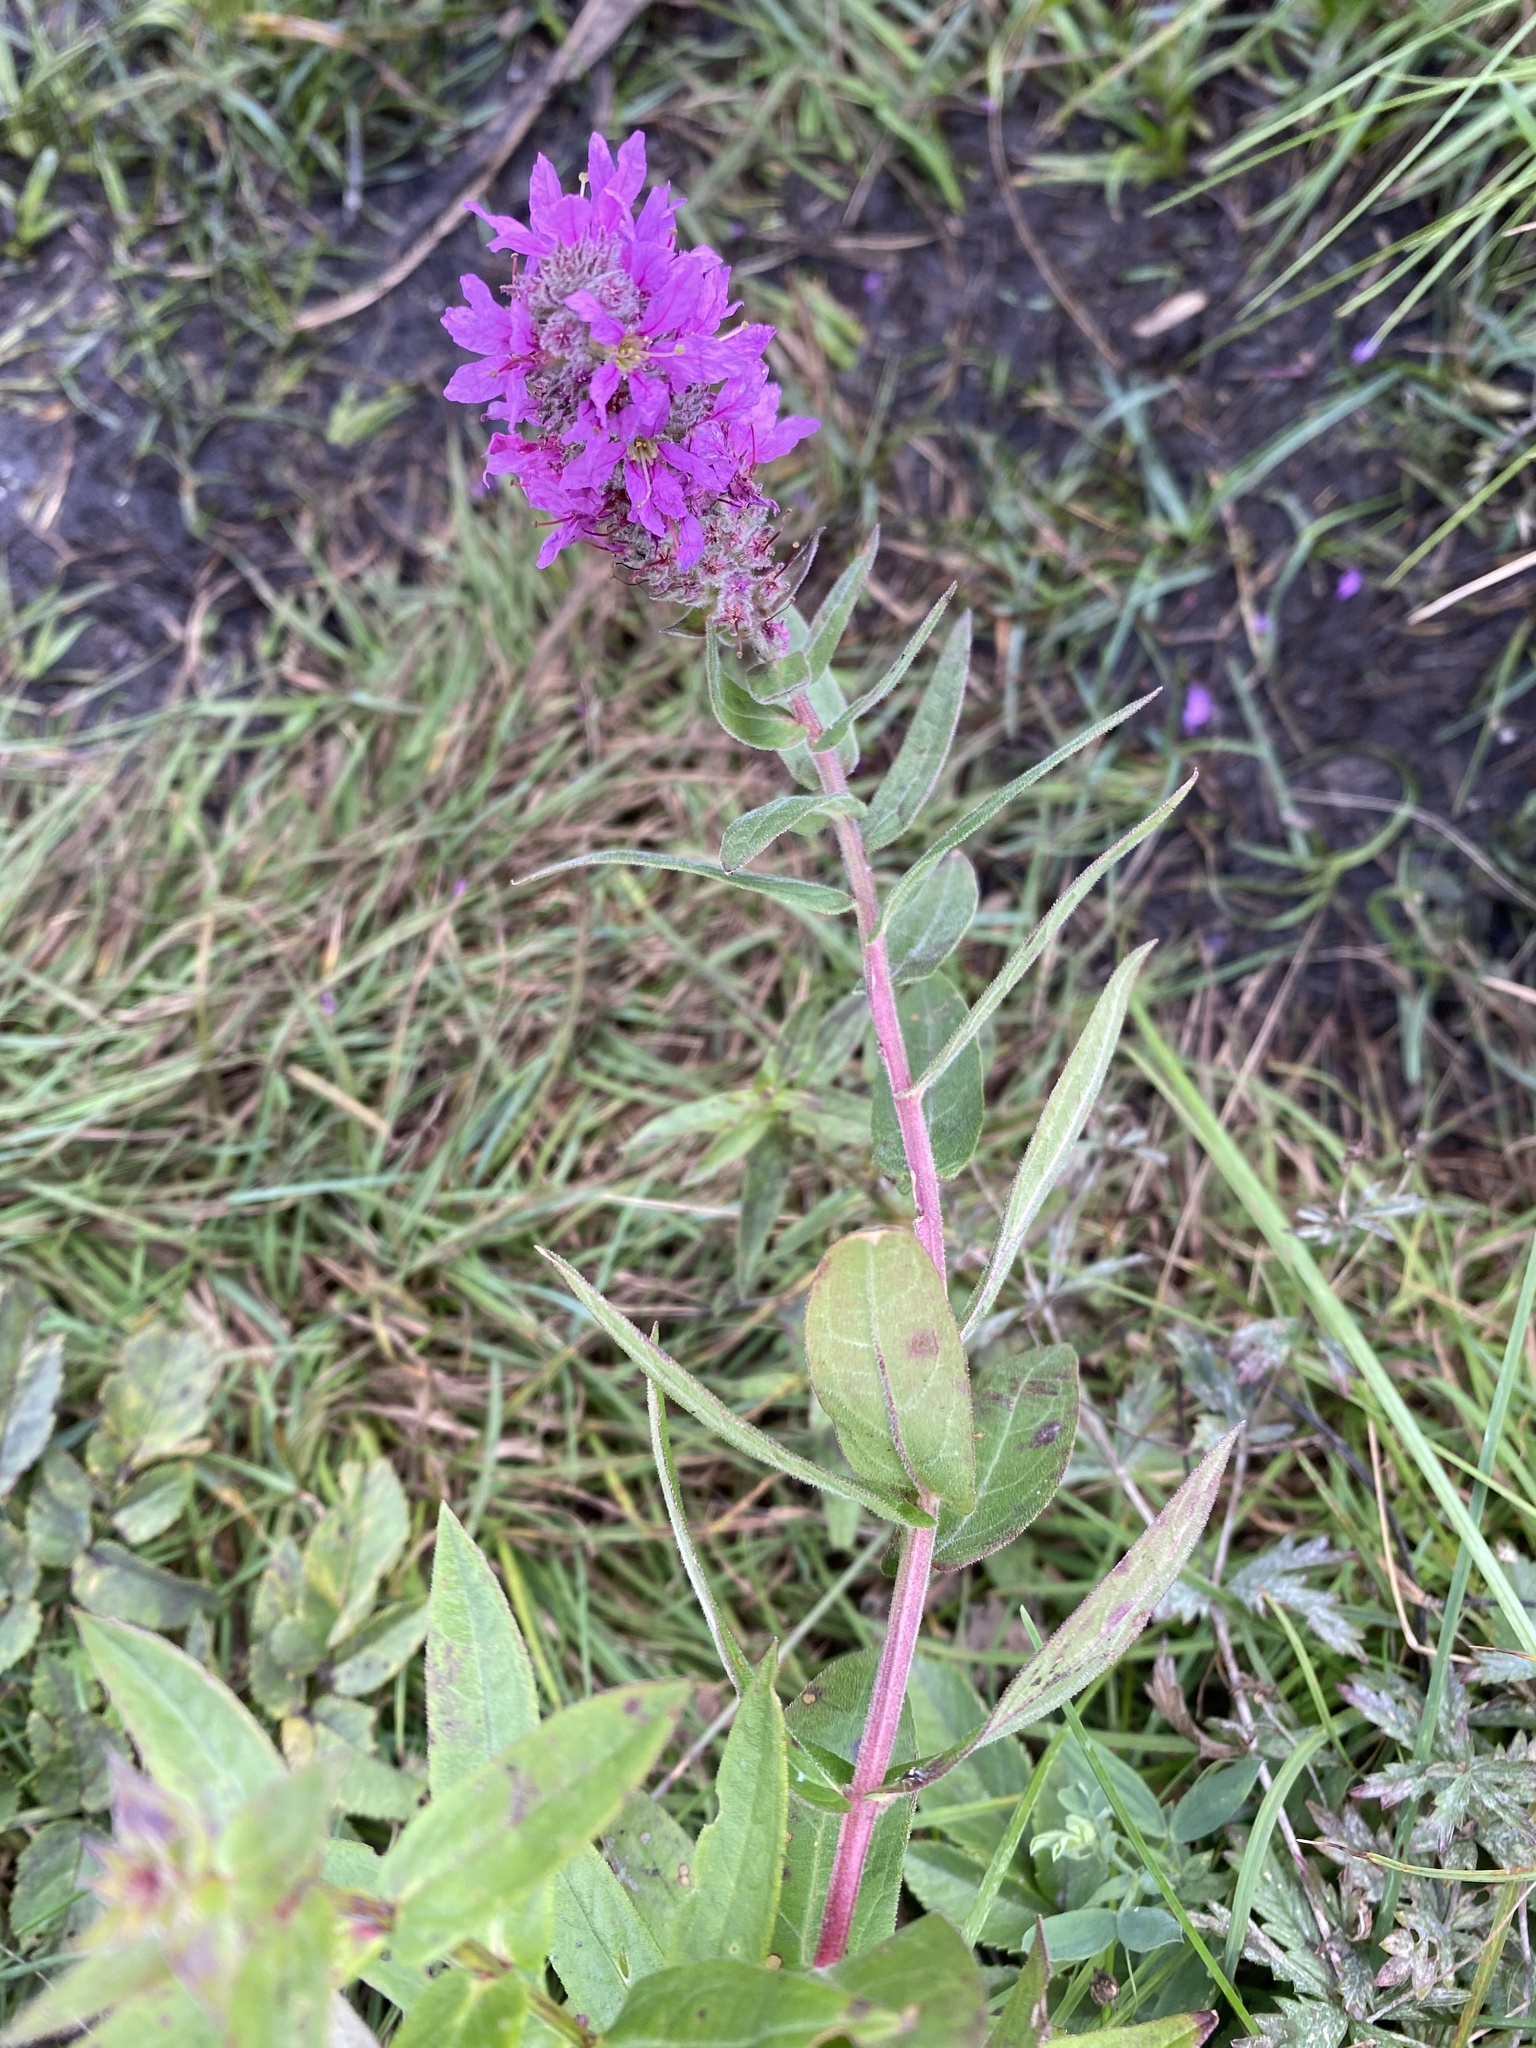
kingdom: Plantae
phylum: Tracheophyta
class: Magnoliopsida
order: Myrtales
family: Lythraceae
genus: Lythrum
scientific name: Lythrum salicaria
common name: Purple loosestrife
